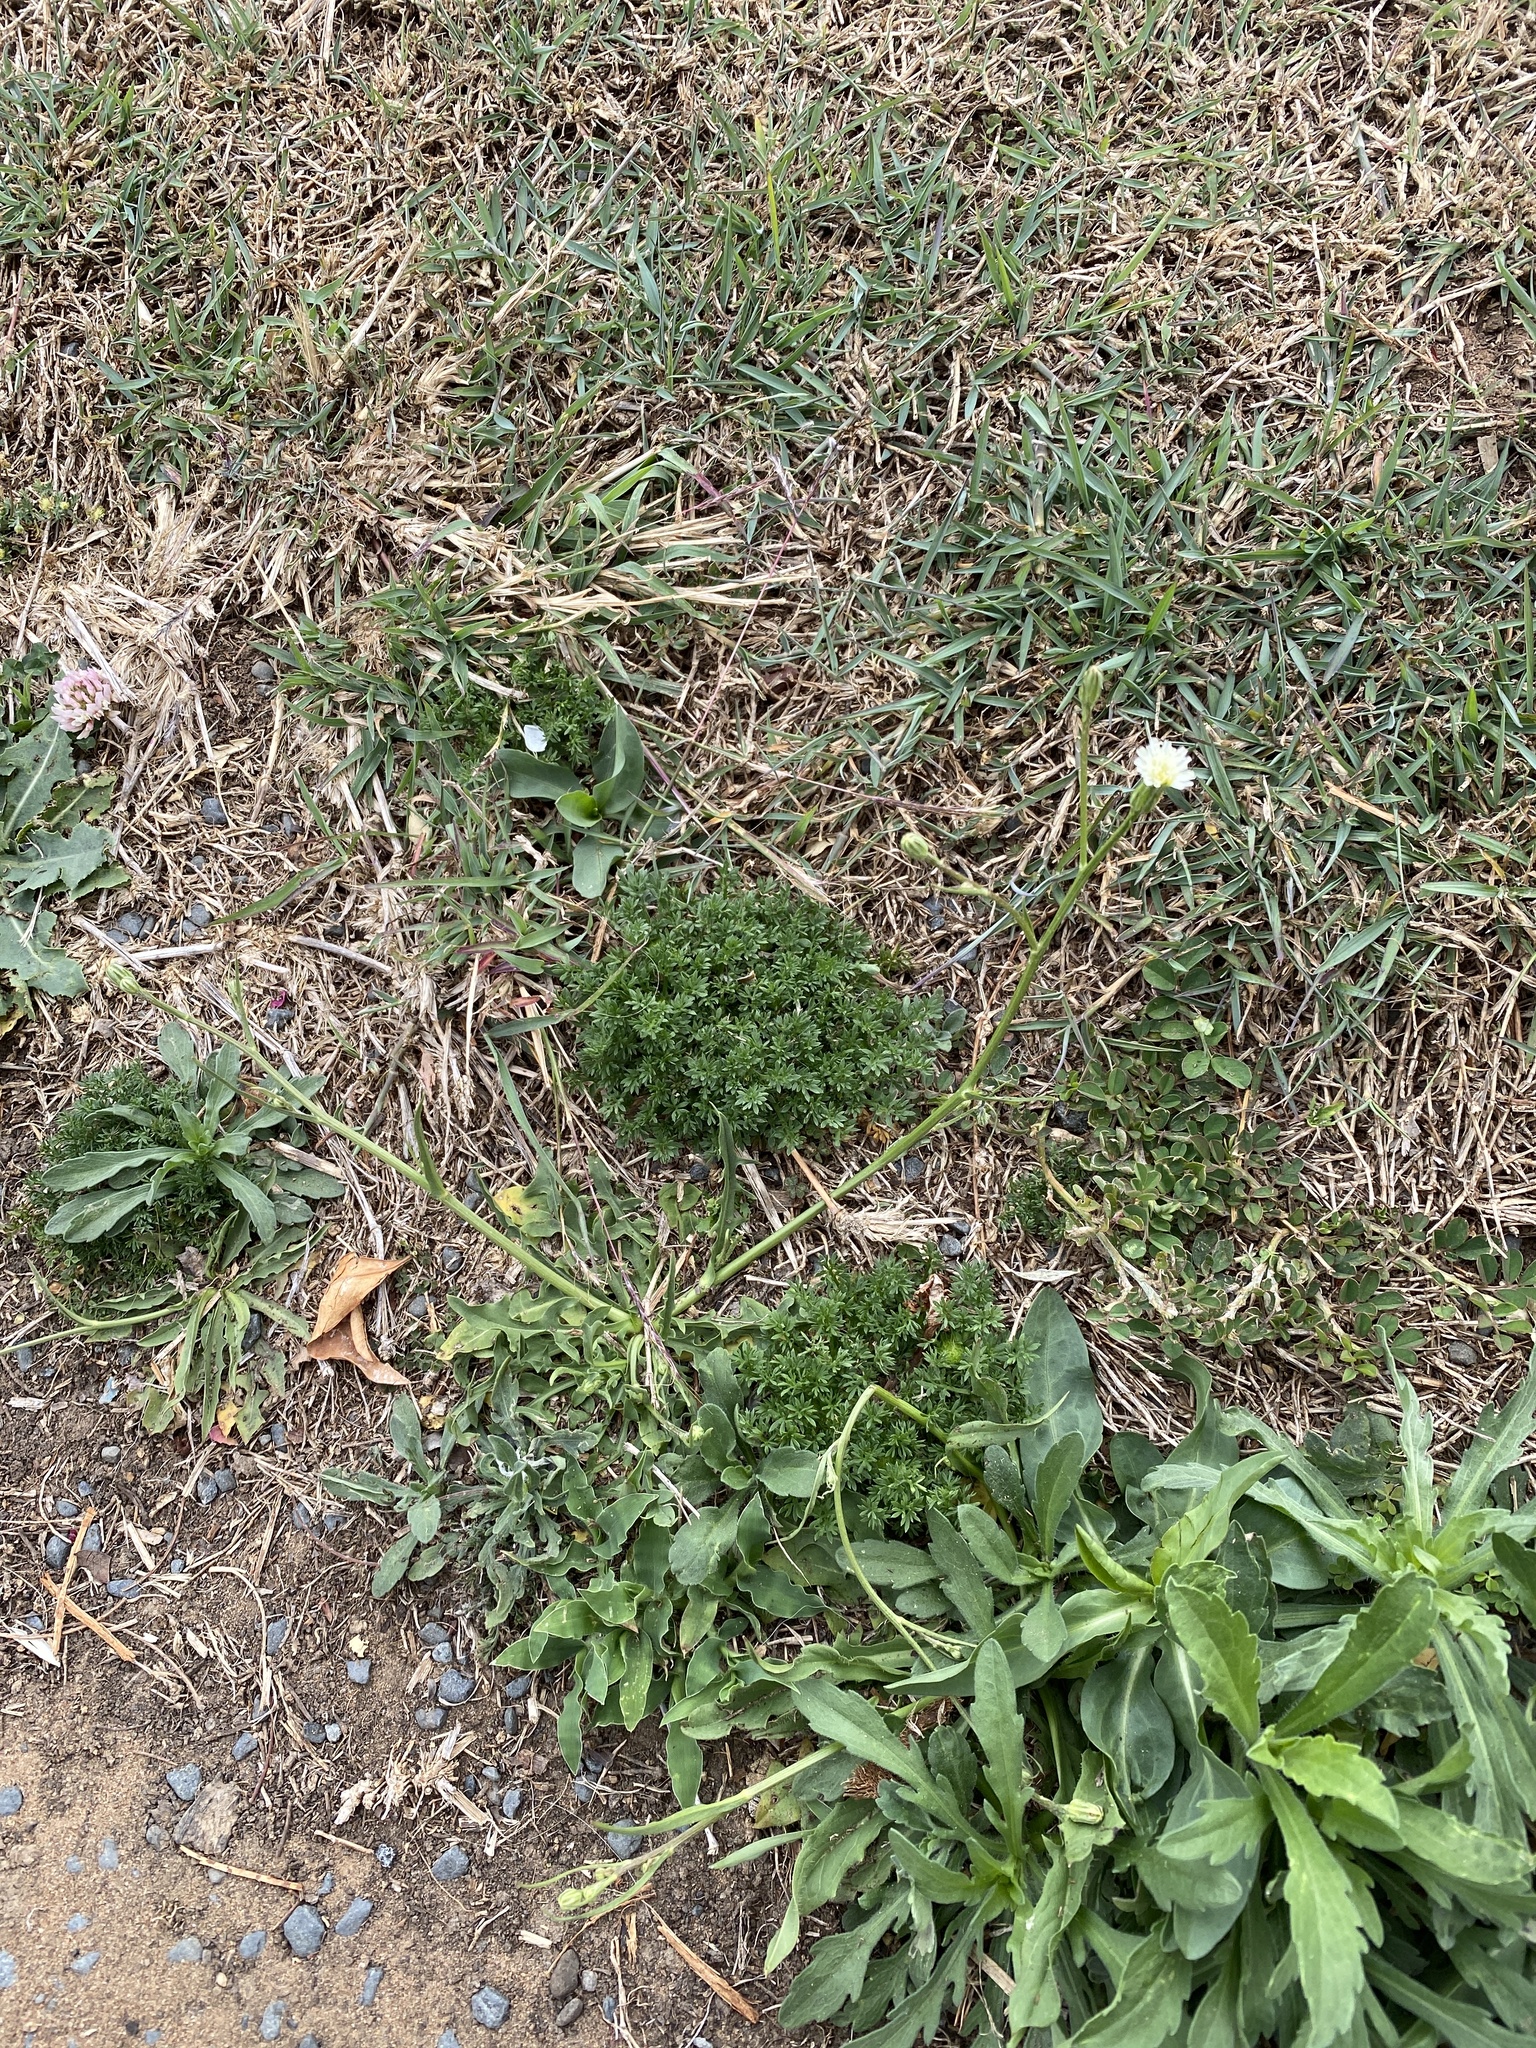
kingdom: Plantae
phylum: Tracheophyta
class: Magnoliopsida
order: Asterales
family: Asteraceae
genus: Hypochaeris
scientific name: Hypochaeris albiflora
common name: White flatweed
